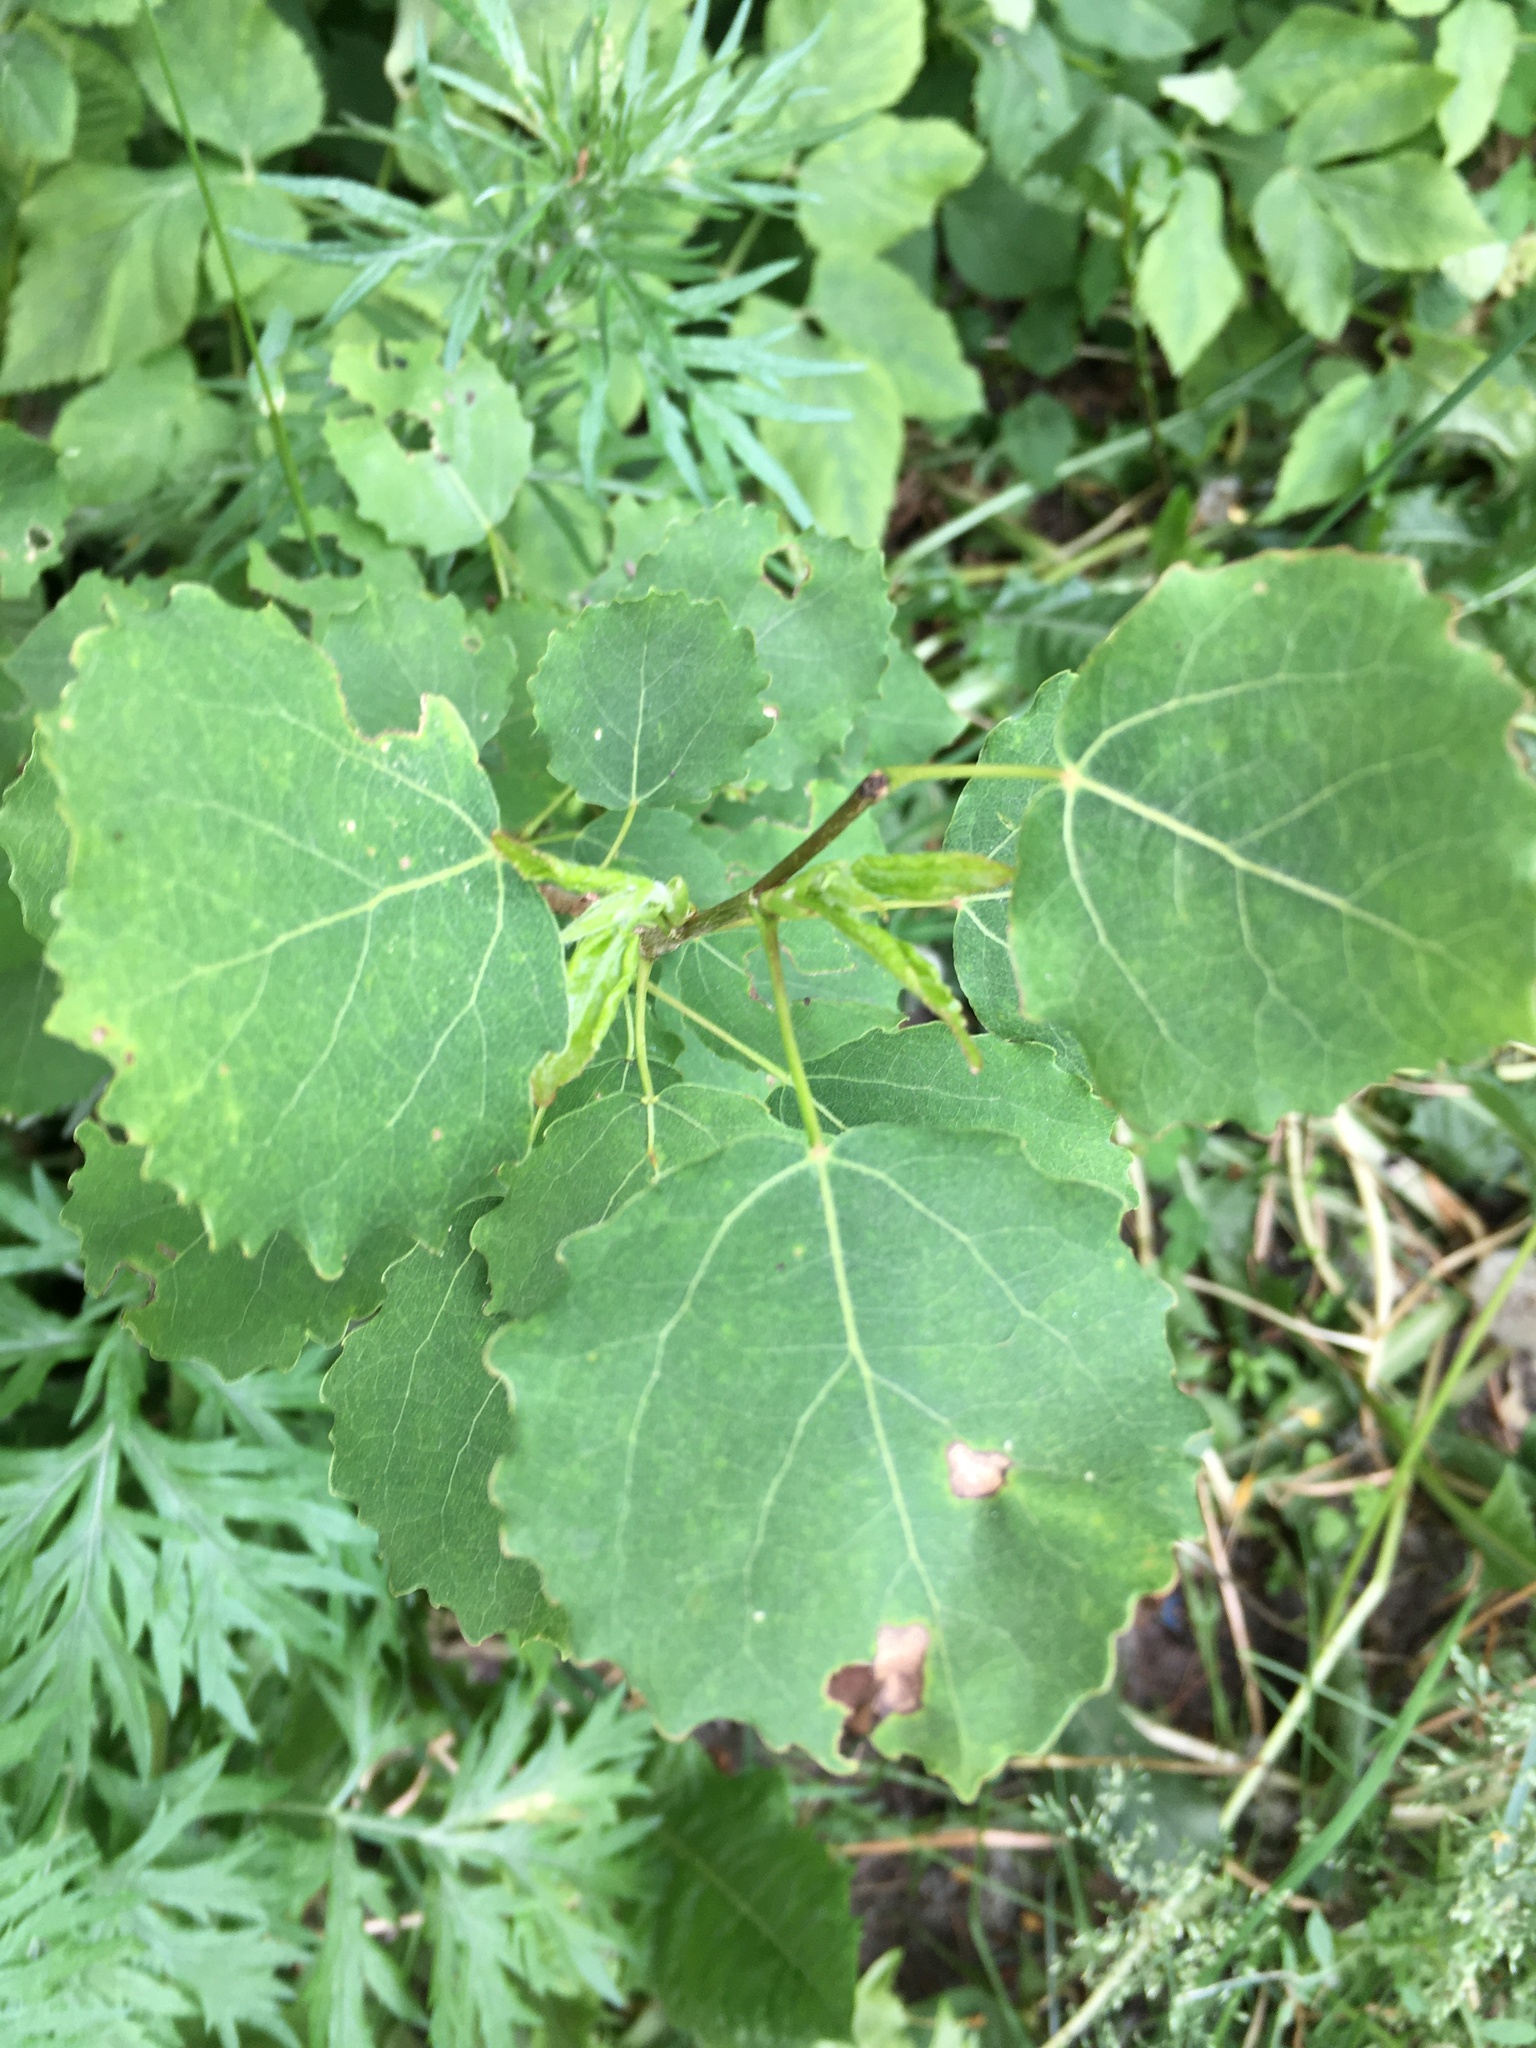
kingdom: Plantae
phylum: Tracheophyta
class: Magnoliopsida
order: Malpighiales
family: Salicaceae
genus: Populus
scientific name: Populus tremula
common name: European aspen
